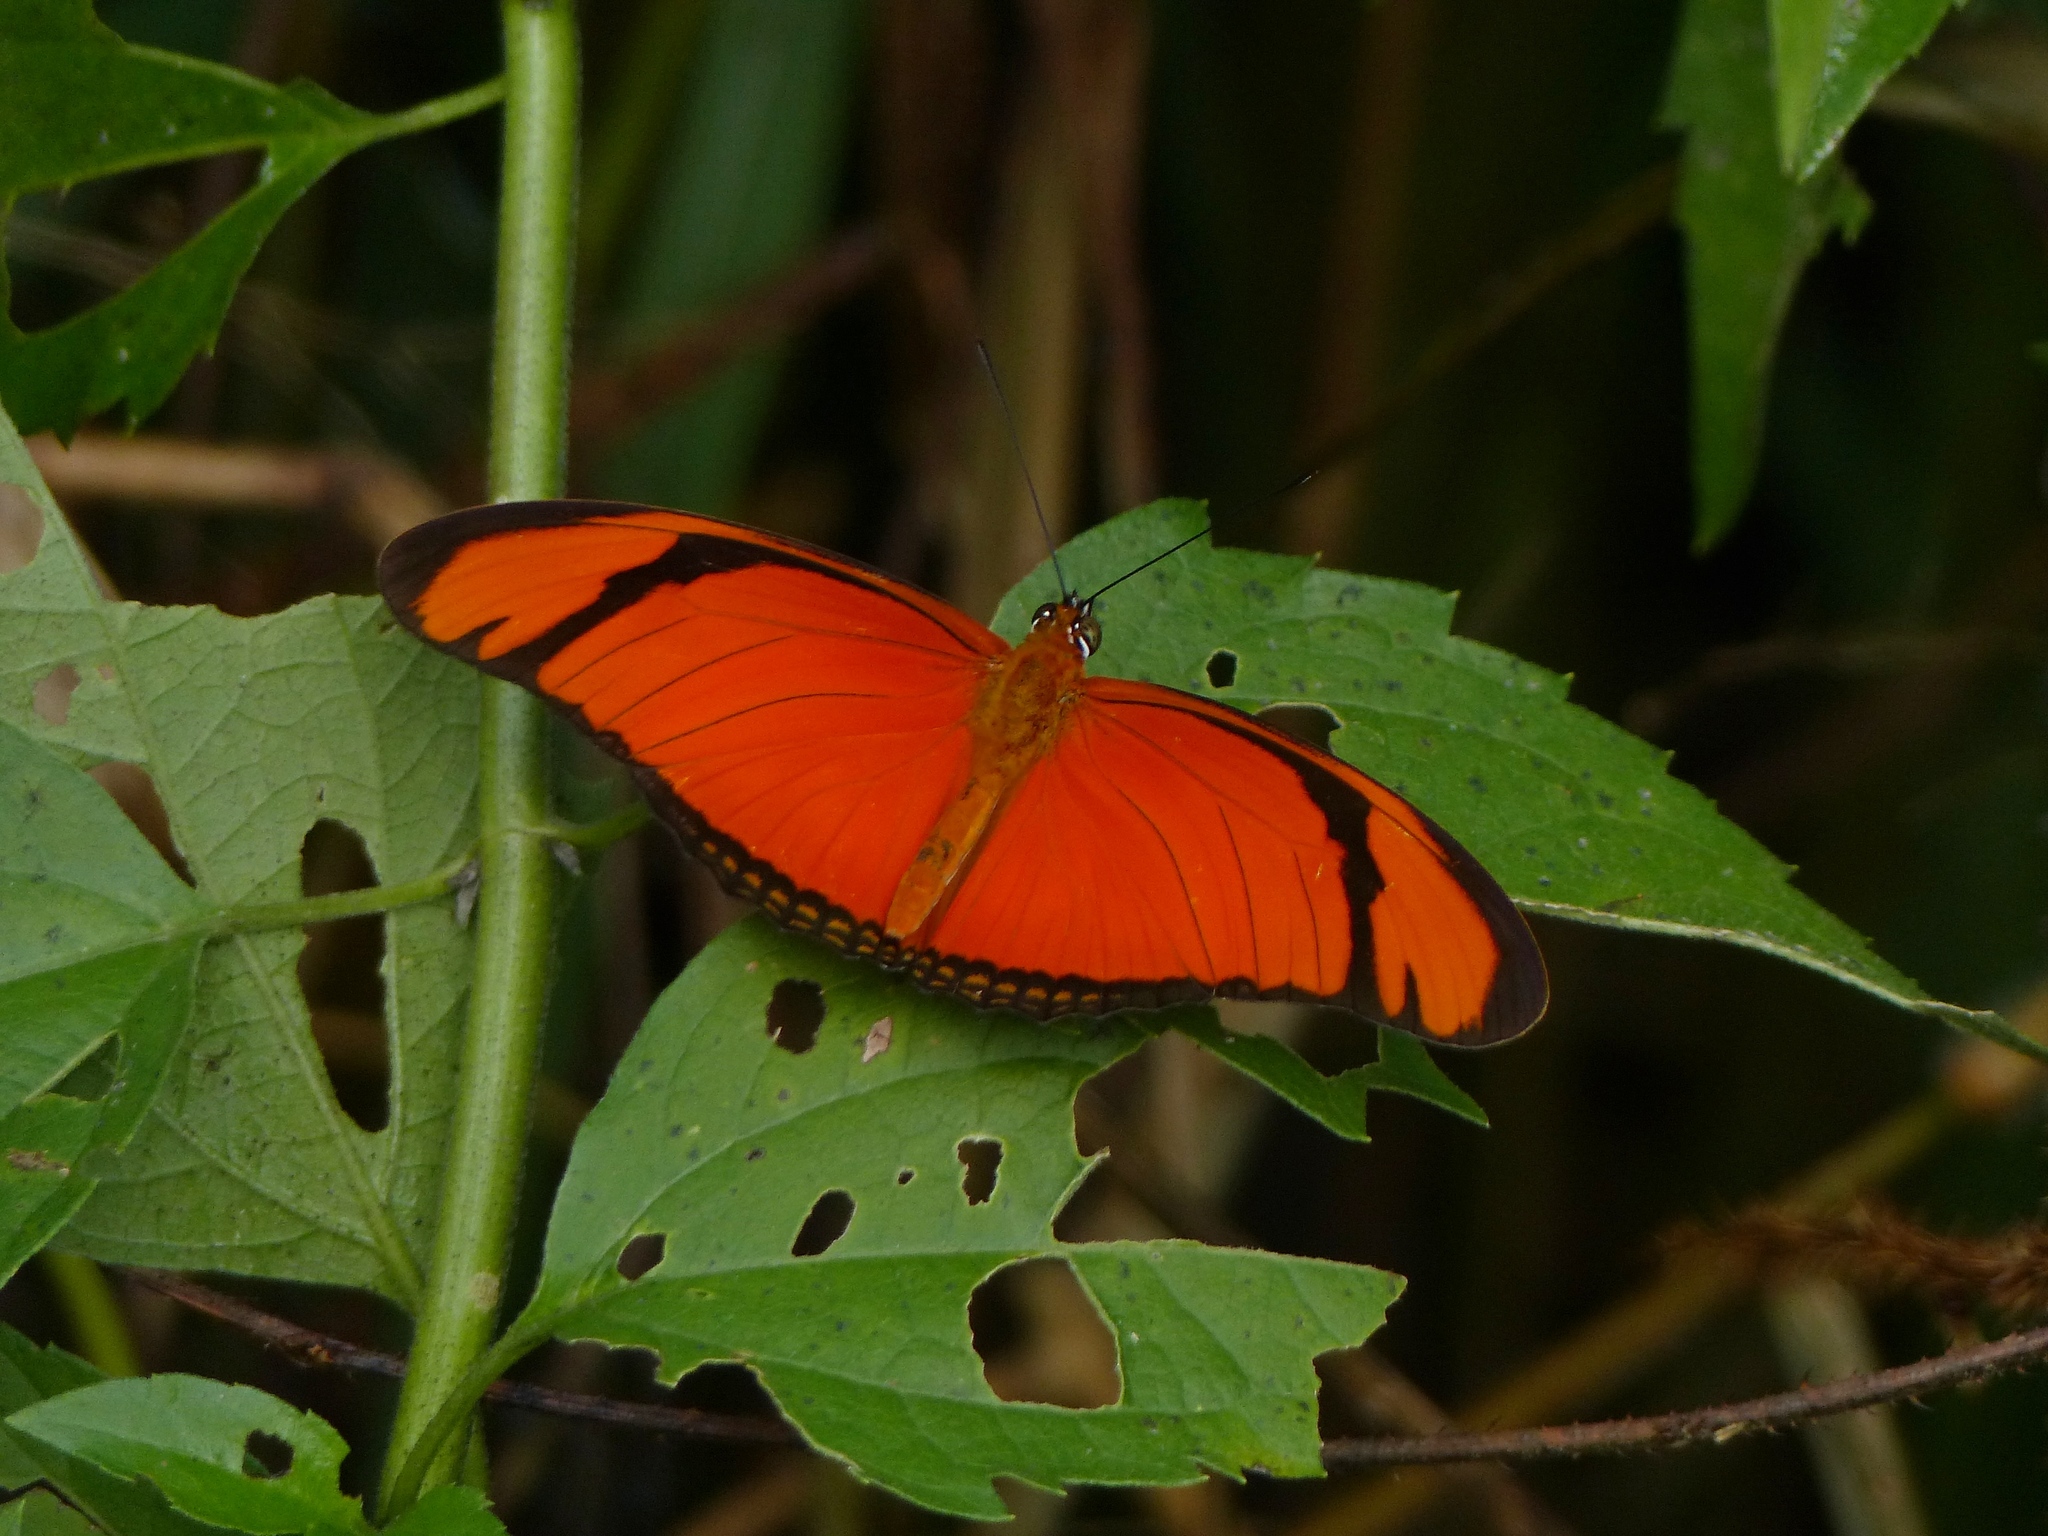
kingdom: Animalia
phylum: Arthropoda
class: Insecta
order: Lepidoptera
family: Nymphalidae
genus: Dryas
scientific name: Dryas iulia
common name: Flambeau
